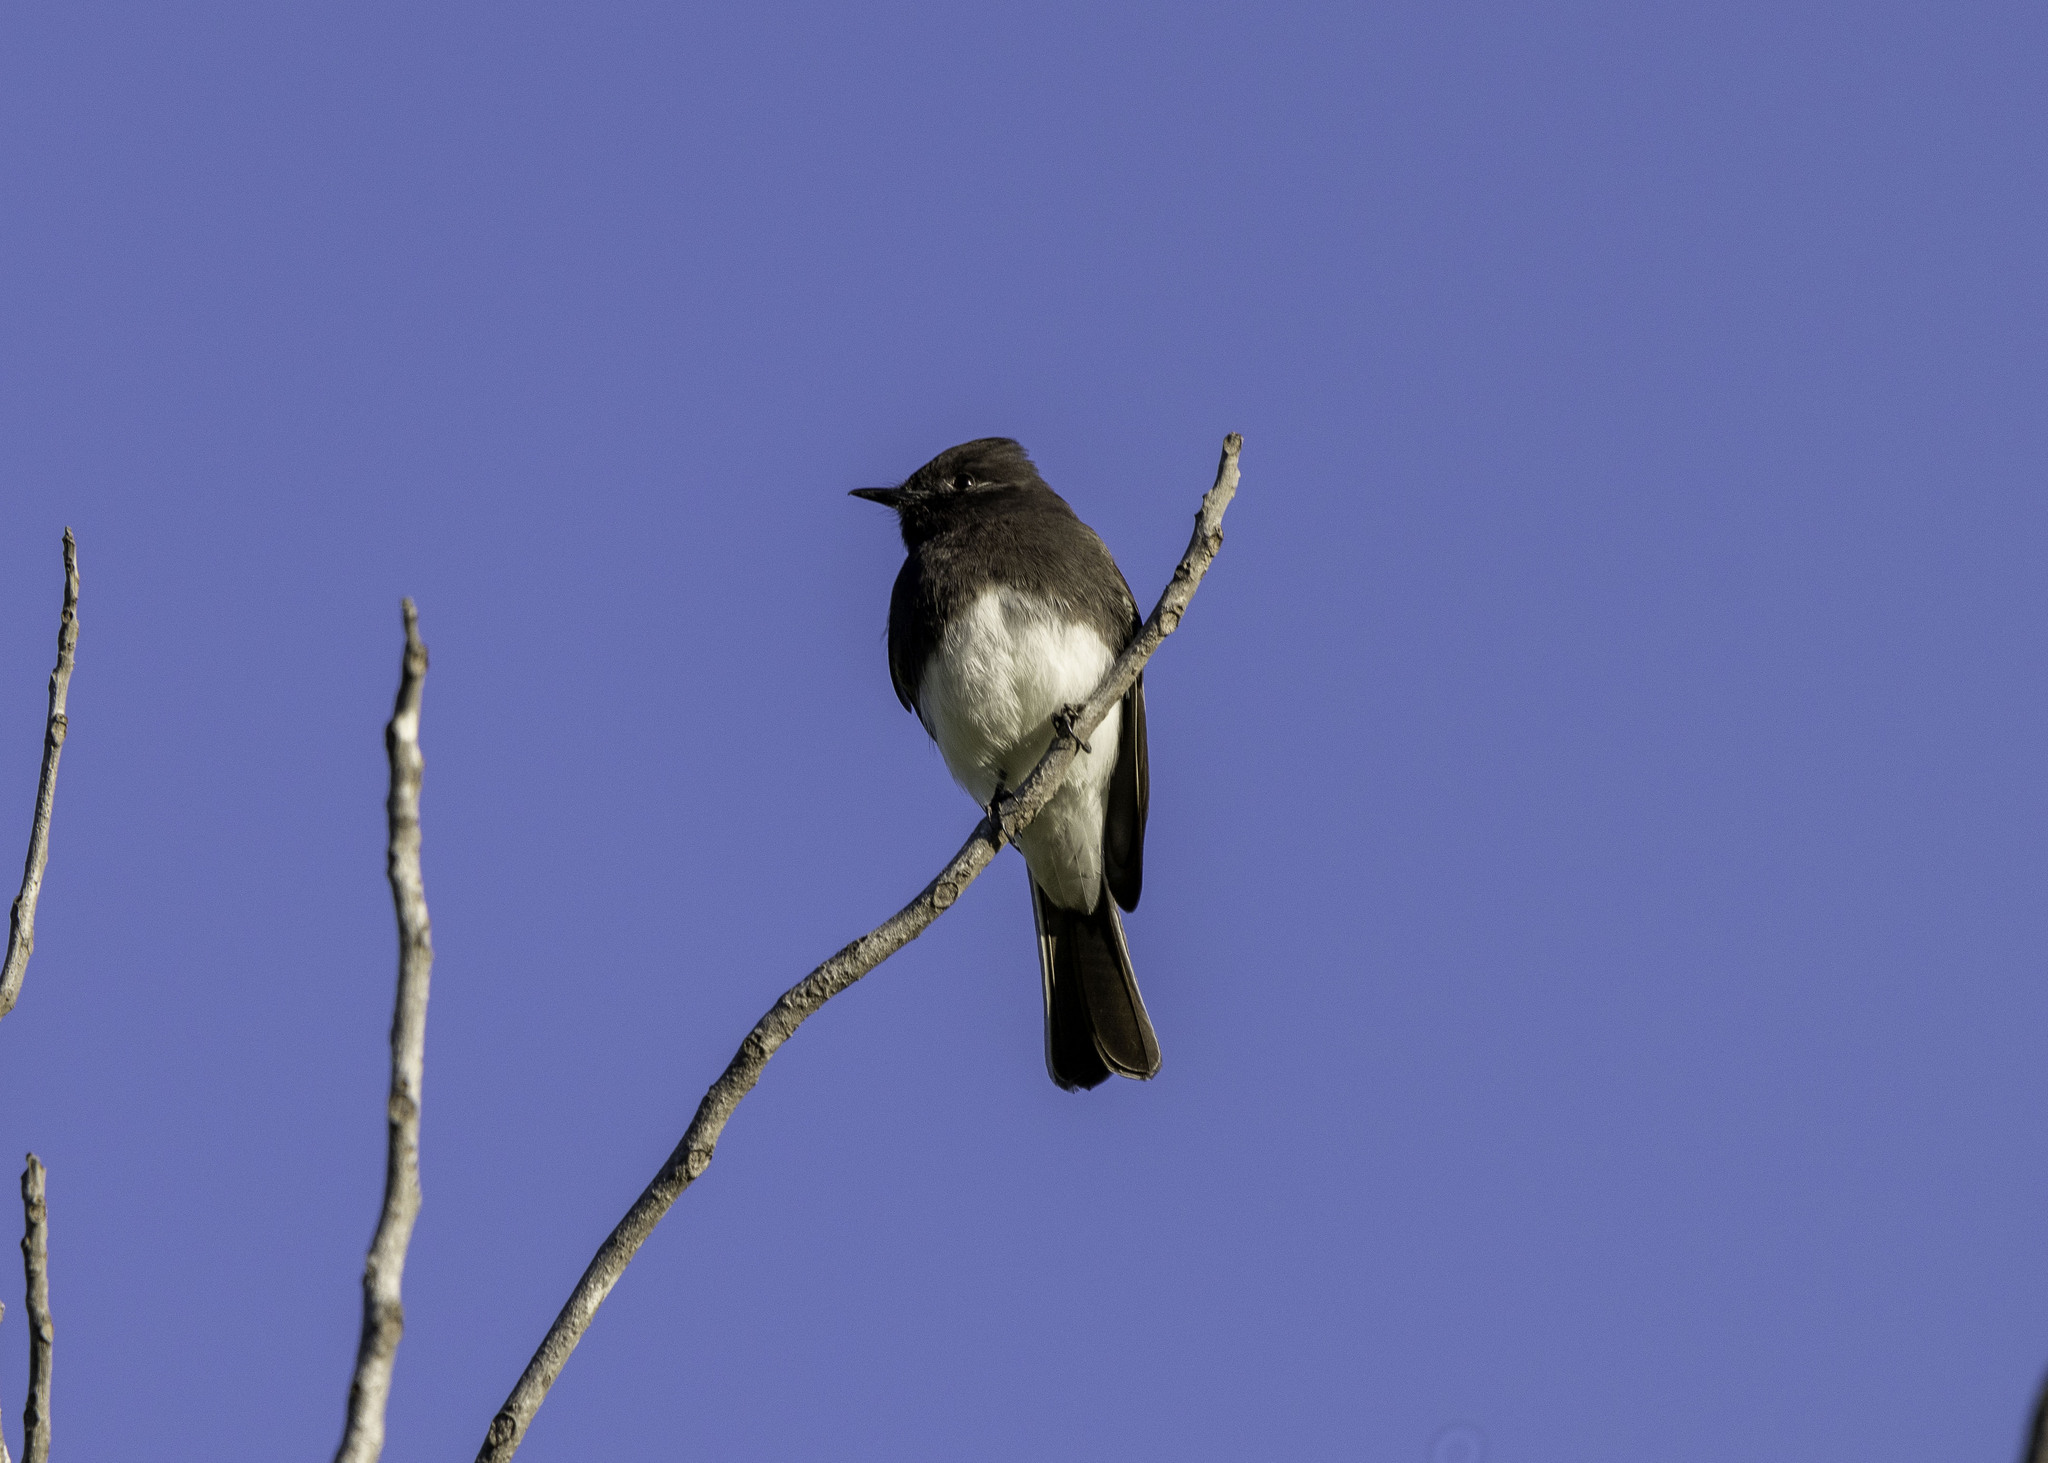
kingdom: Animalia
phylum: Chordata
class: Aves
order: Passeriformes
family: Tyrannidae
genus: Sayornis
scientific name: Sayornis nigricans
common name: Black phoebe
